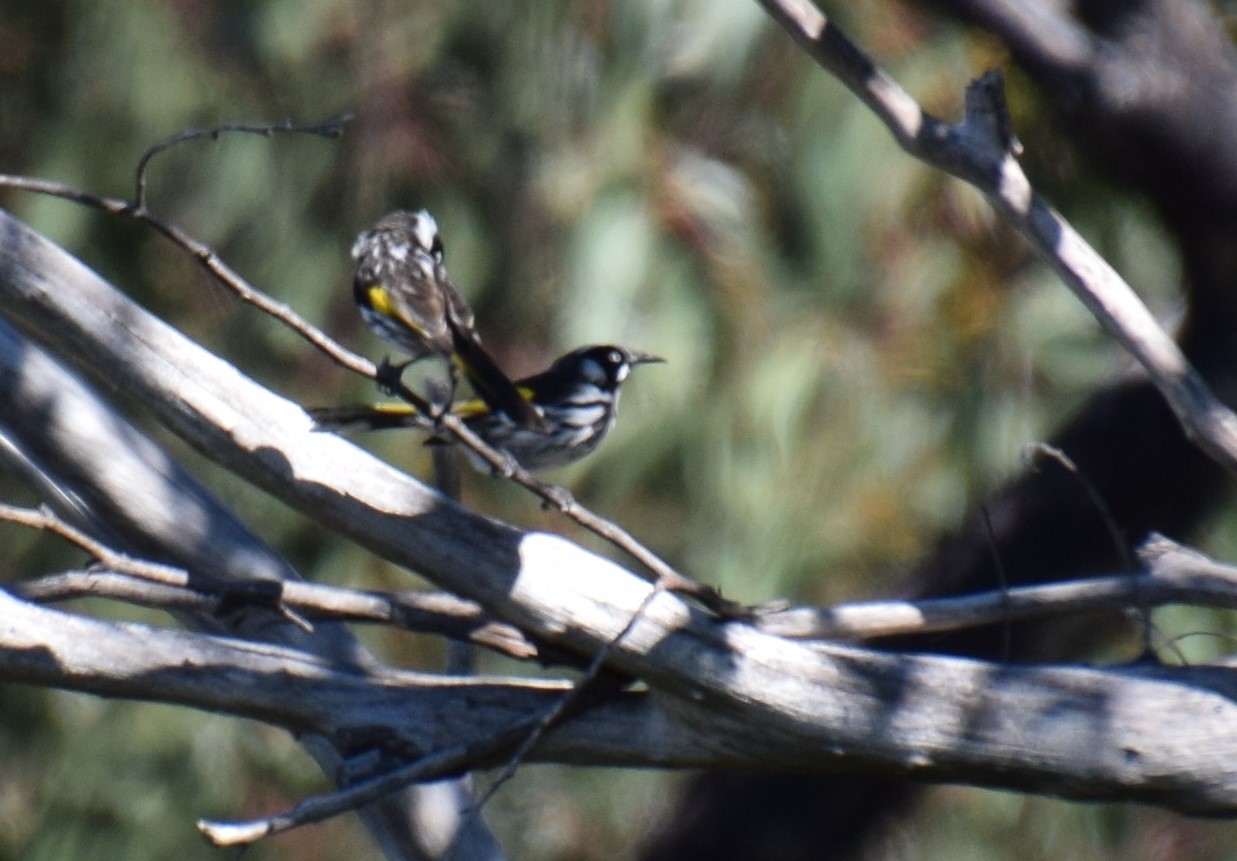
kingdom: Animalia
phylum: Chordata
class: Aves
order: Passeriformes
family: Meliphagidae
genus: Phylidonyris
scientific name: Phylidonyris novaehollandiae
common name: New holland honeyeater
